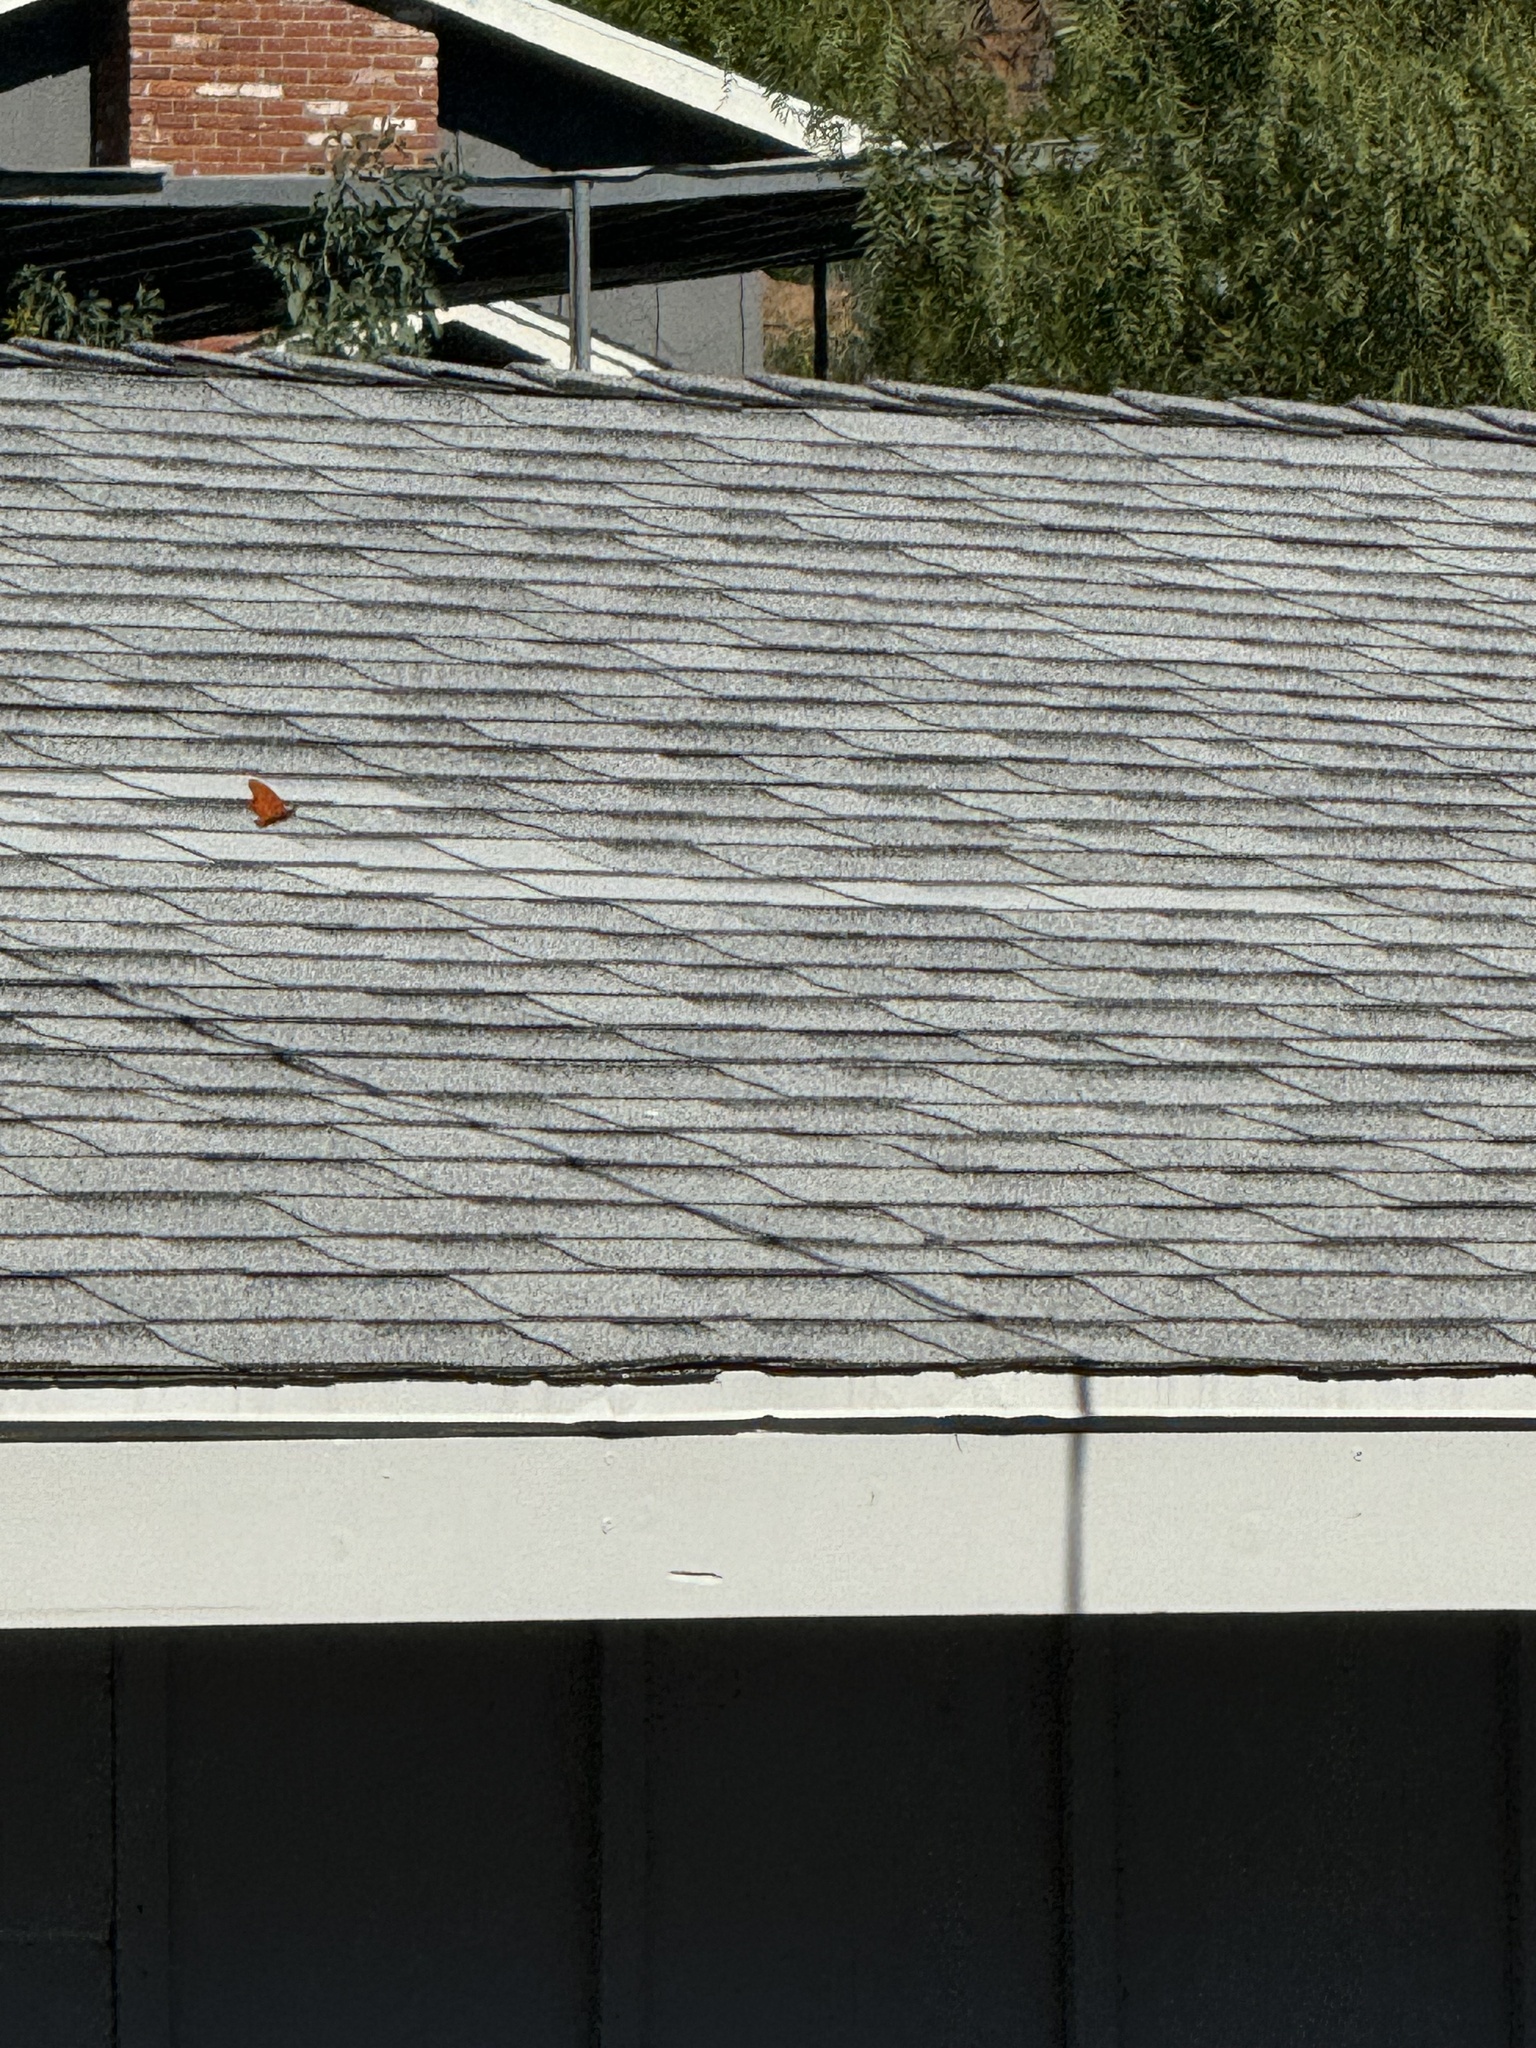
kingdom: Animalia
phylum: Arthropoda
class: Insecta
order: Lepidoptera
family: Nymphalidae
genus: Dione
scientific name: Dione vanillae
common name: Gulf fritillary
